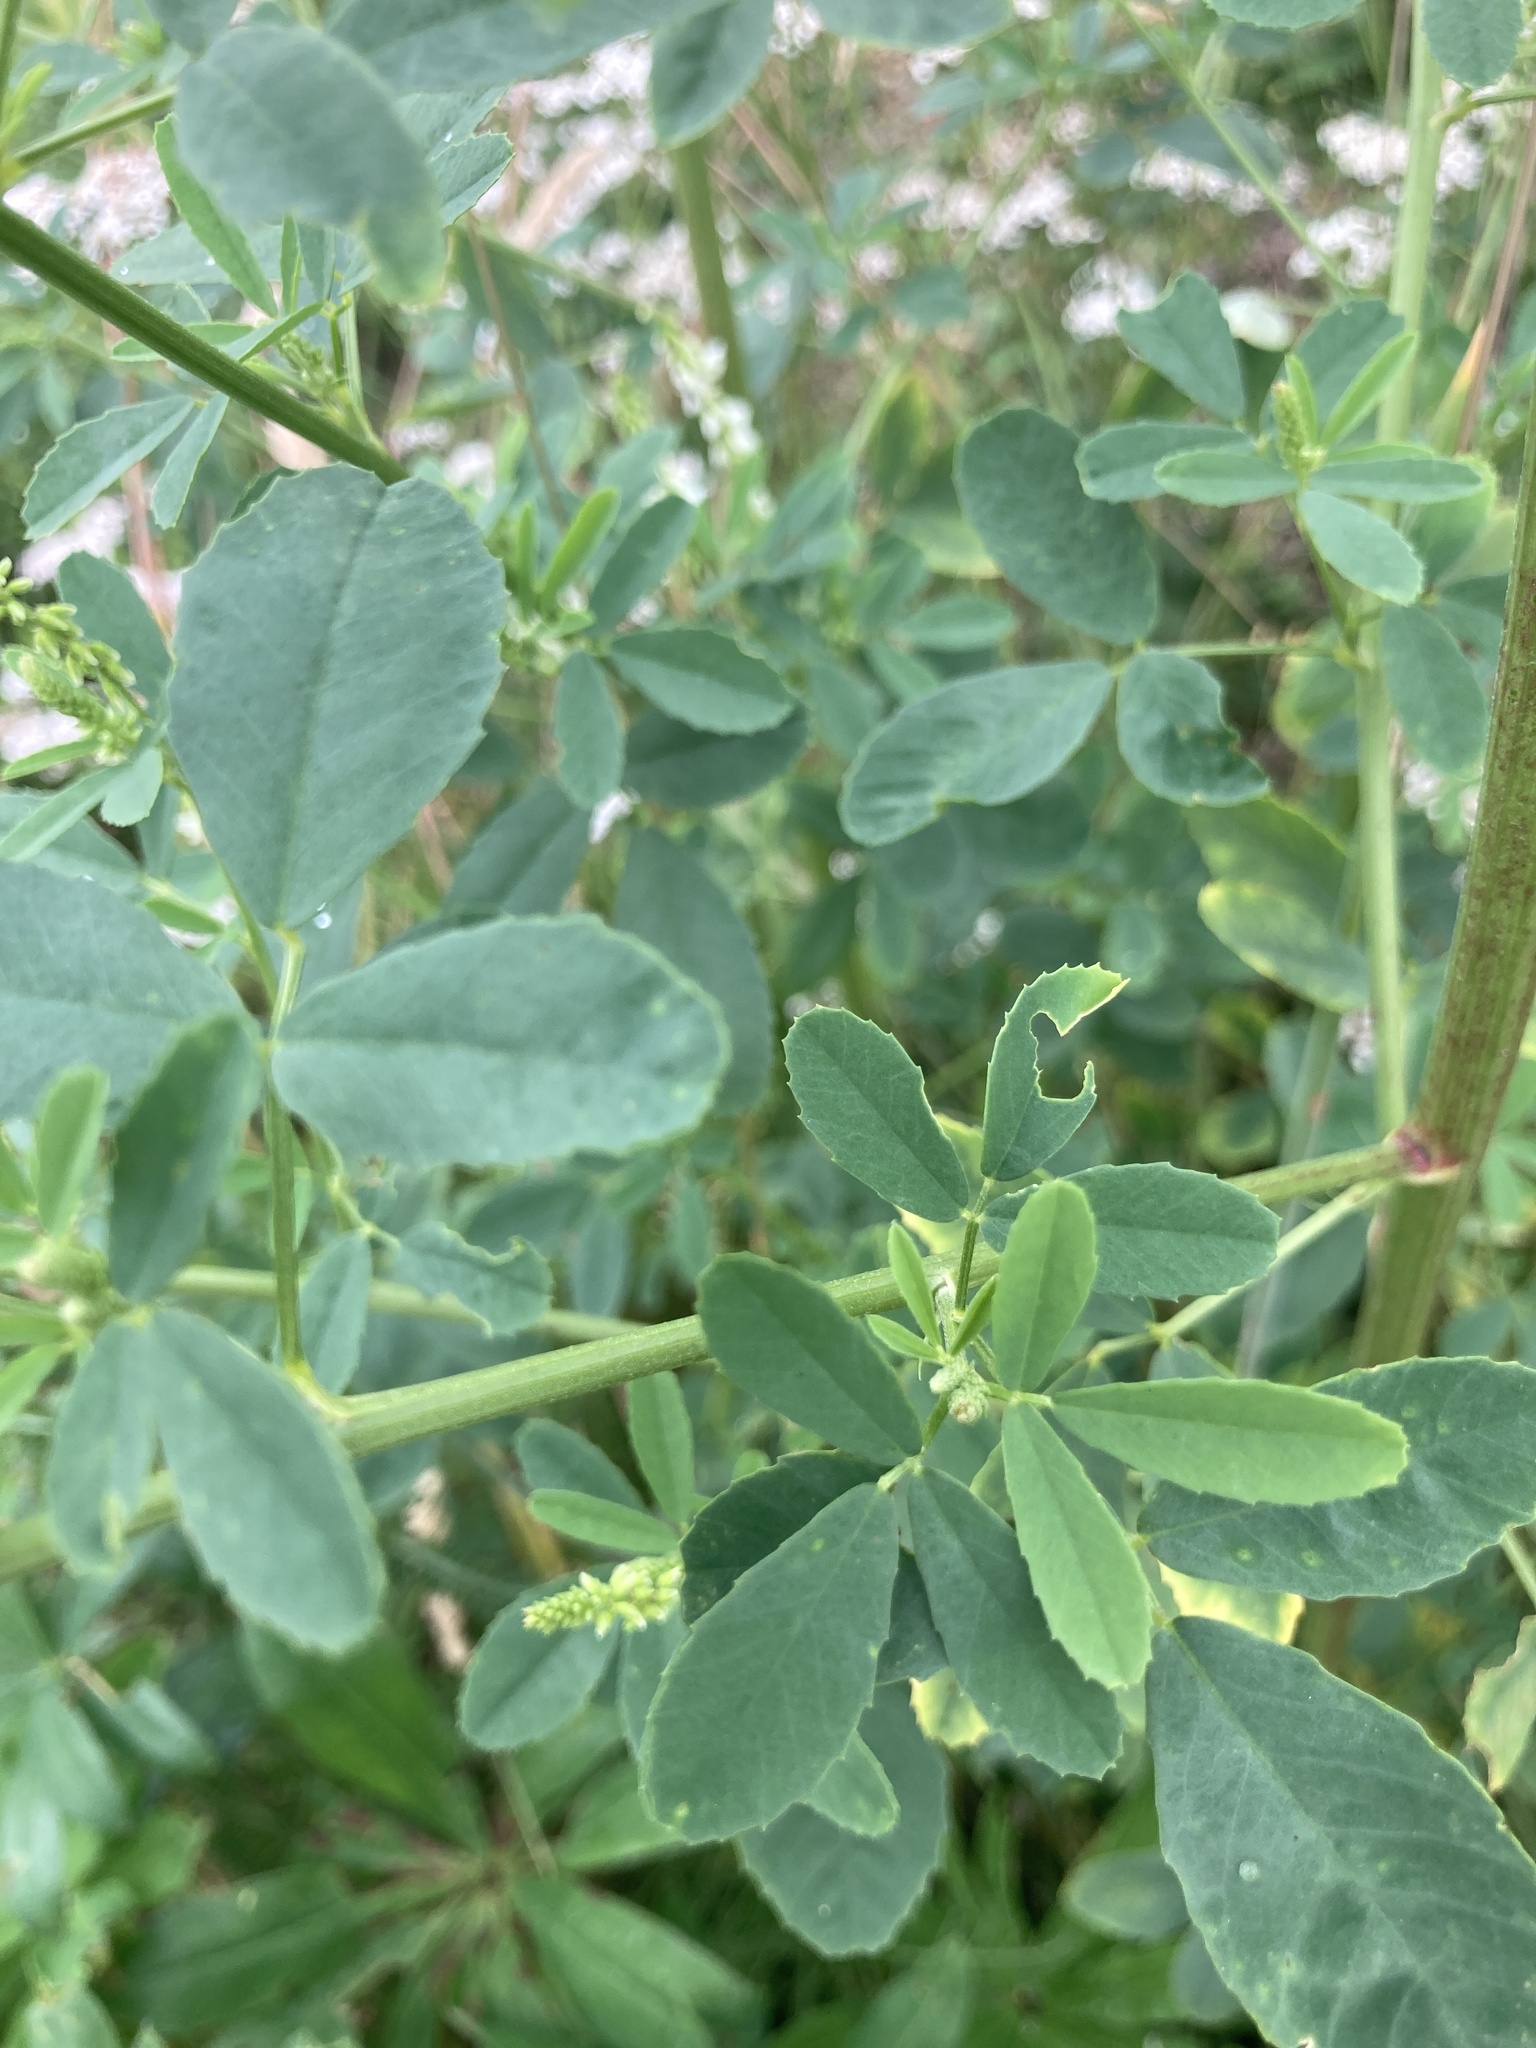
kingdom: Plantae
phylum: Tracheophyta
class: Magnoliopsida
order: Fabales
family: Fabaceae
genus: Melilotus
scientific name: Melilotus albus
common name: White melilot
